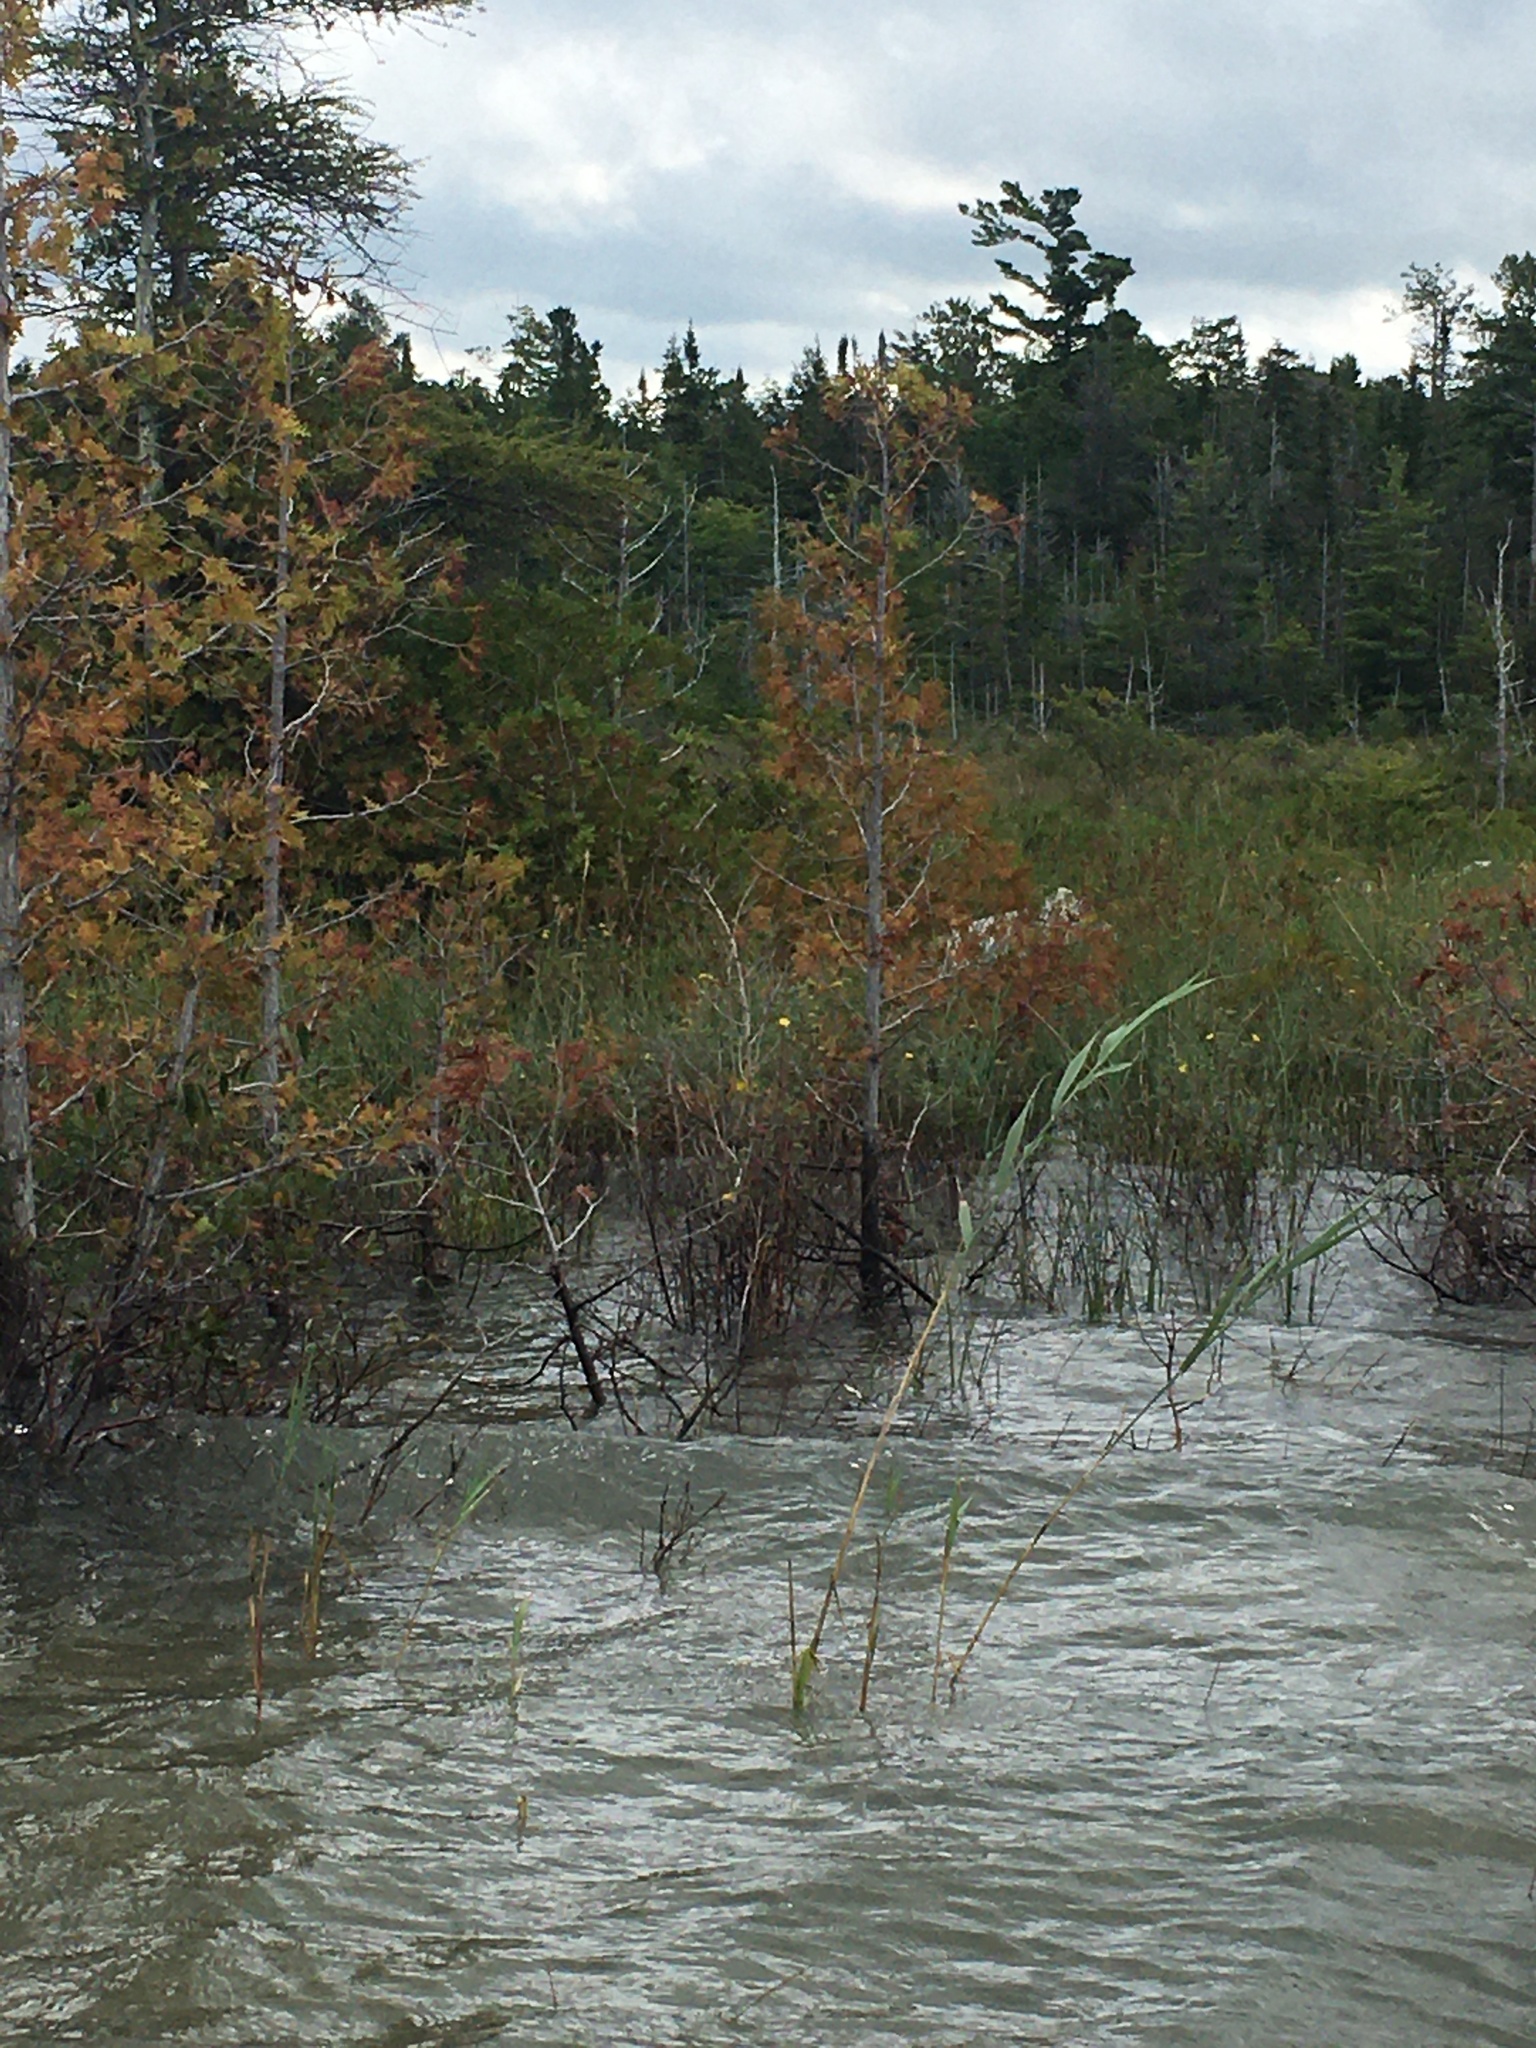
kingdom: Plantae
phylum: Tracheophyta
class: Liliopsida
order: Poales
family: Poaceae
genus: Phragmites
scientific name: Phragmites australis
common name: Common reed
